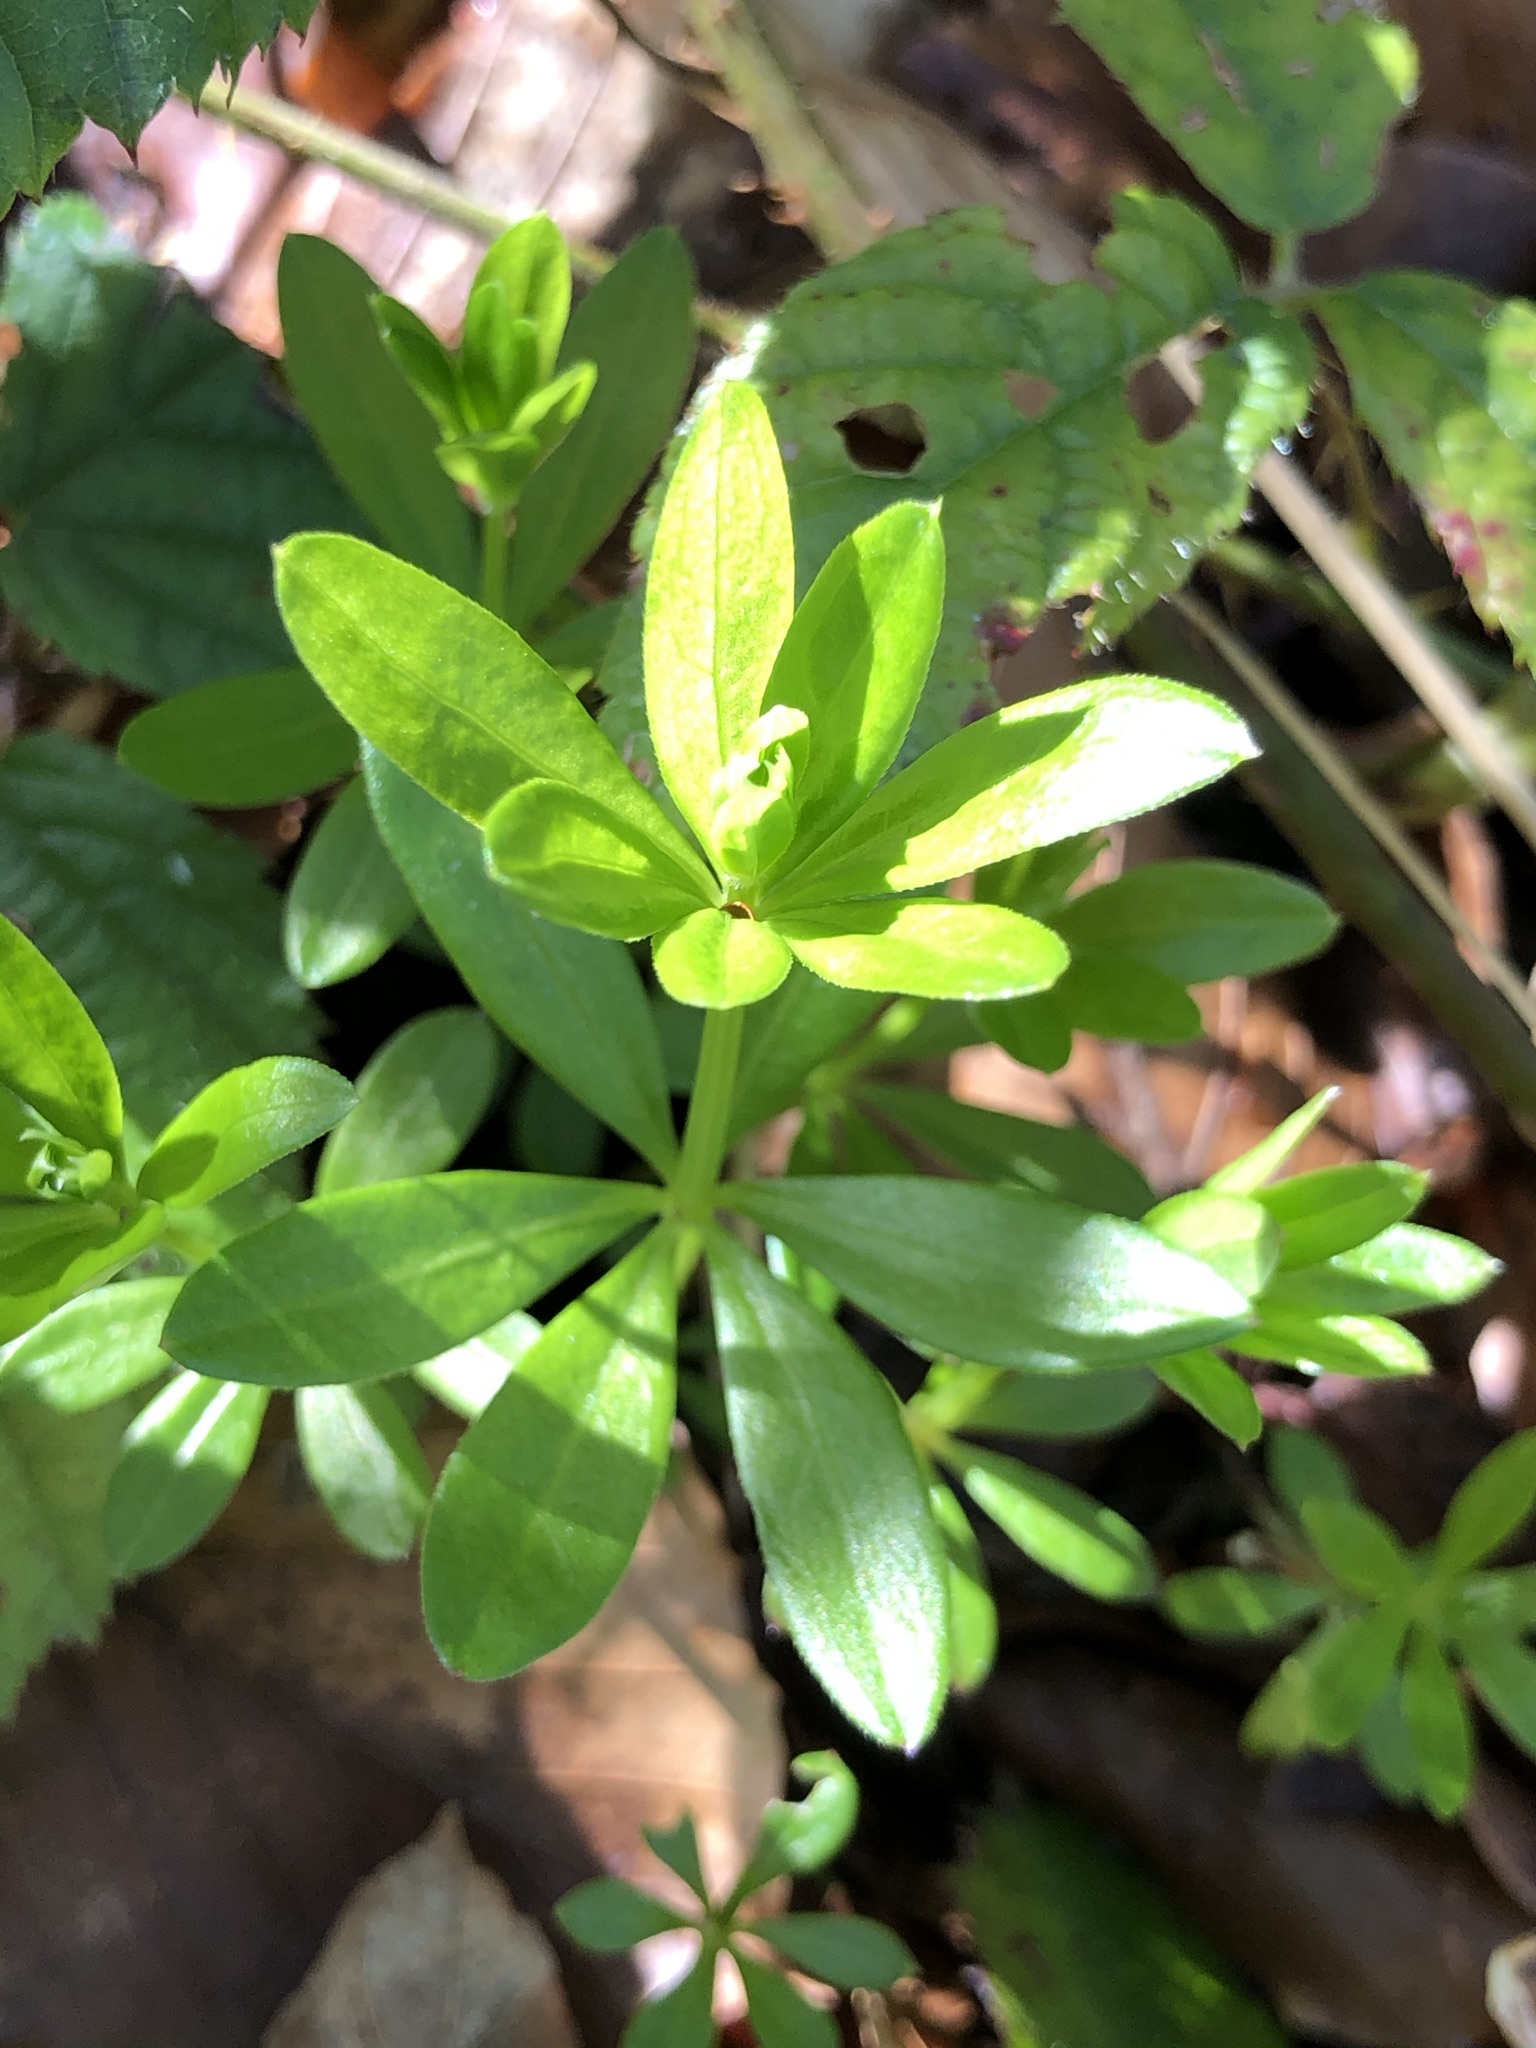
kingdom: Plantae
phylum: Tracheophyta
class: Magnoliopsida
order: Gentianales
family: Rubiaceae
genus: Galium
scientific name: Galium odoratum
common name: Sweet woodruff
